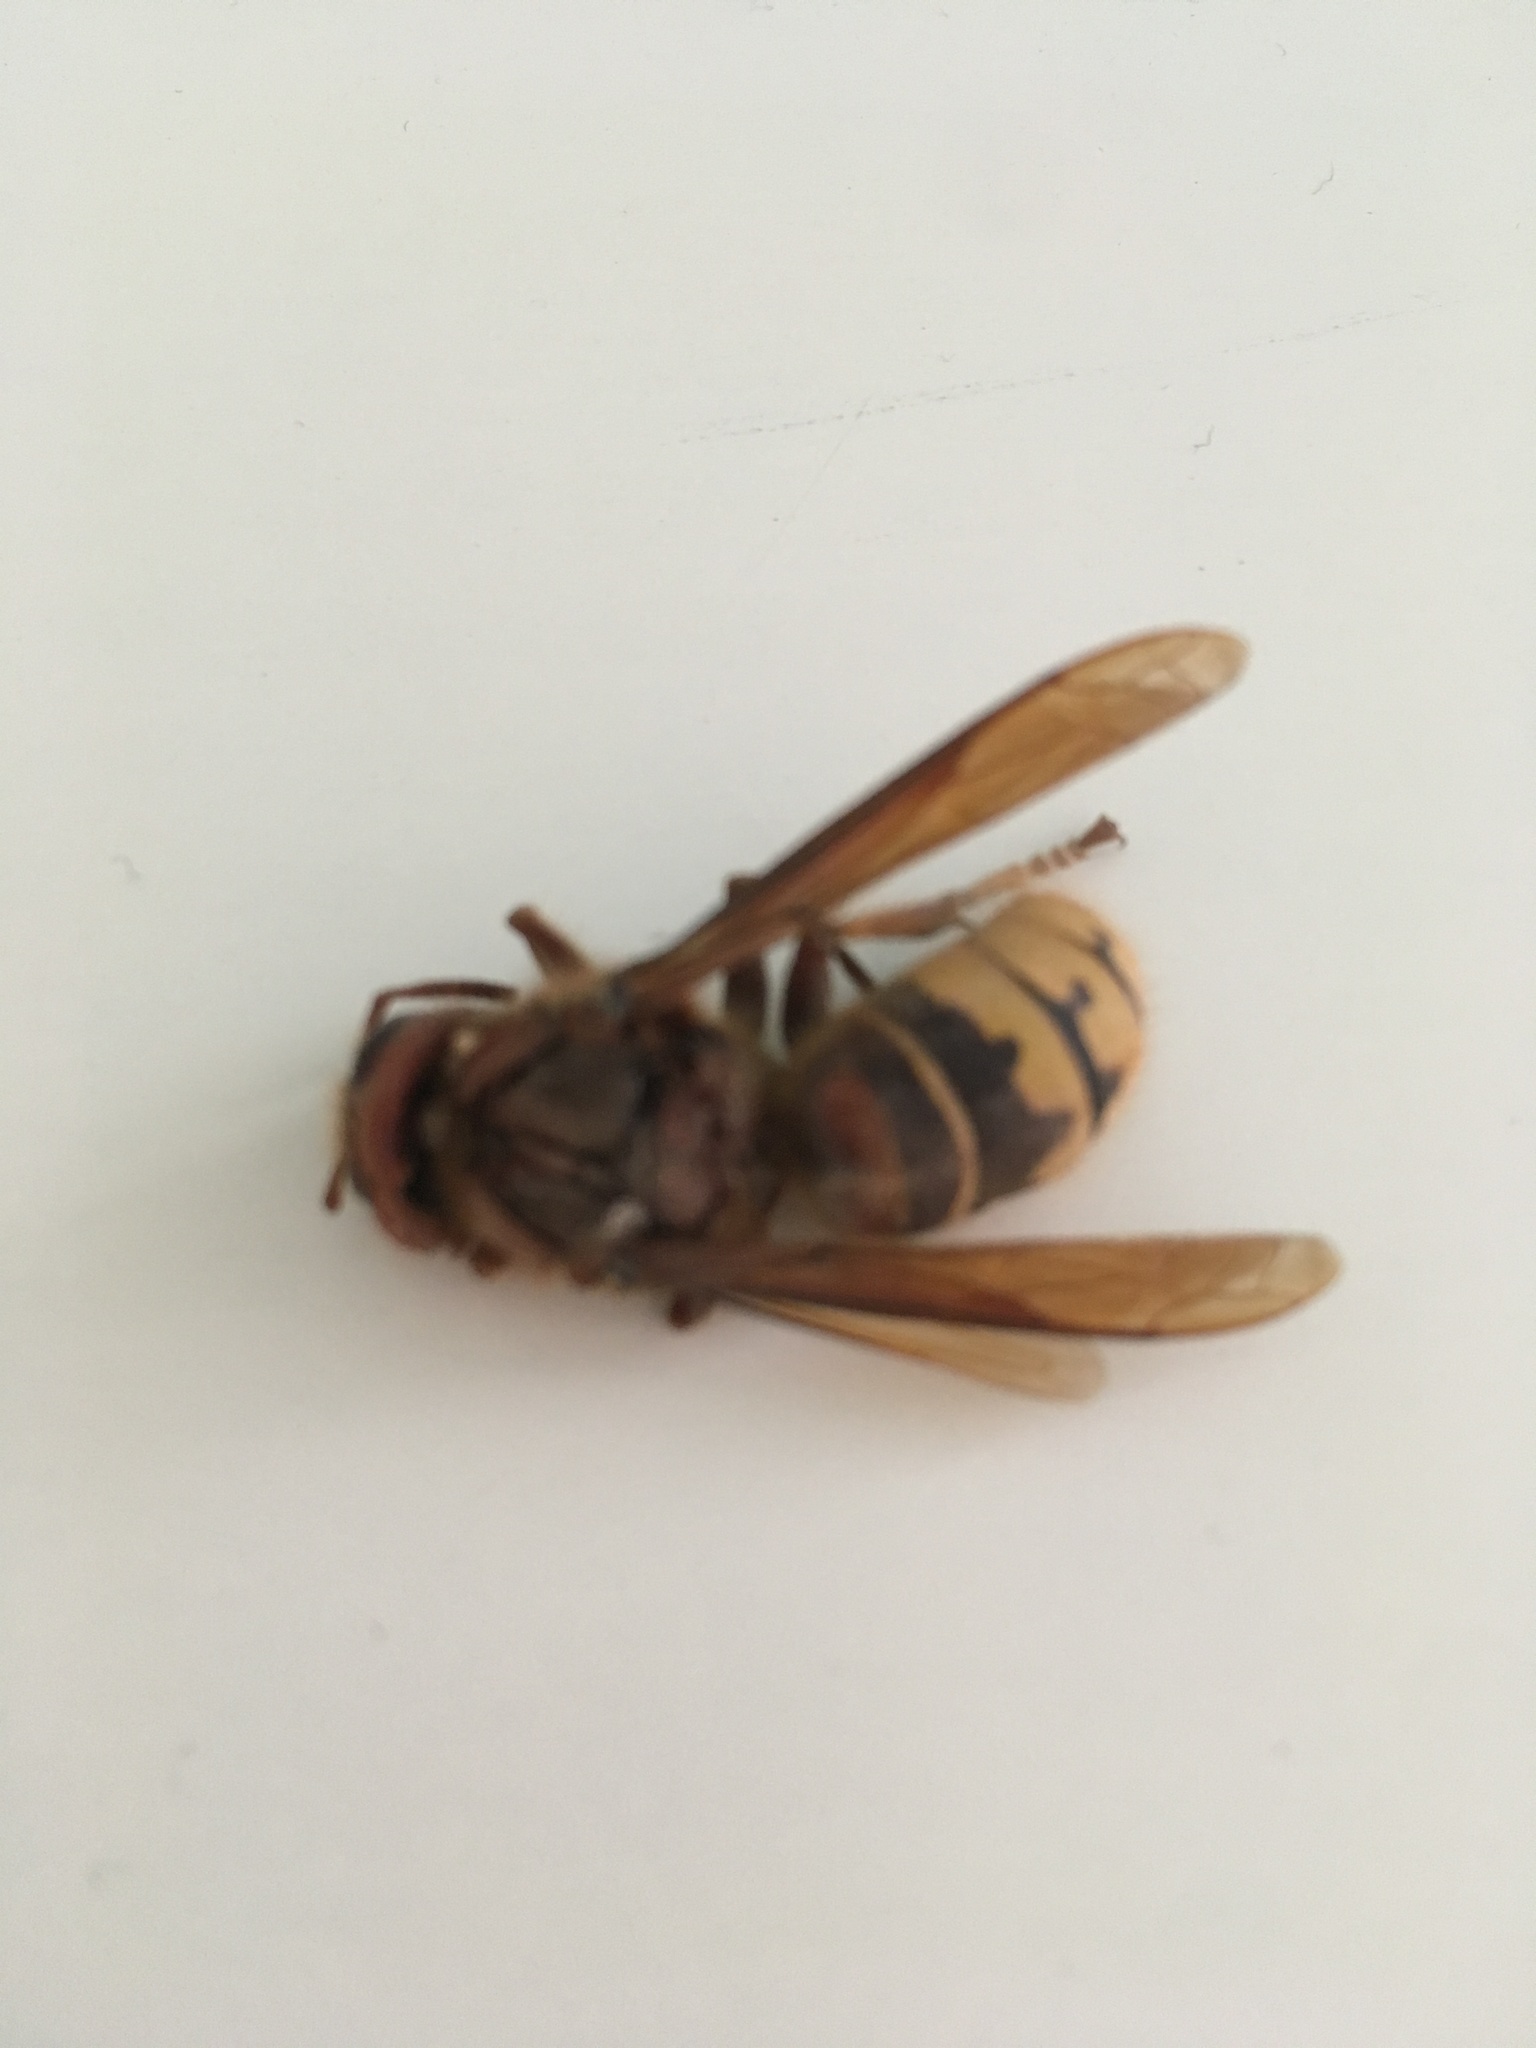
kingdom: Animalia
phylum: Arthropoda
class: Insecta
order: Hymenoptera
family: Vespidae
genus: Vespa
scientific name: Vespa crabro
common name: Hornet
